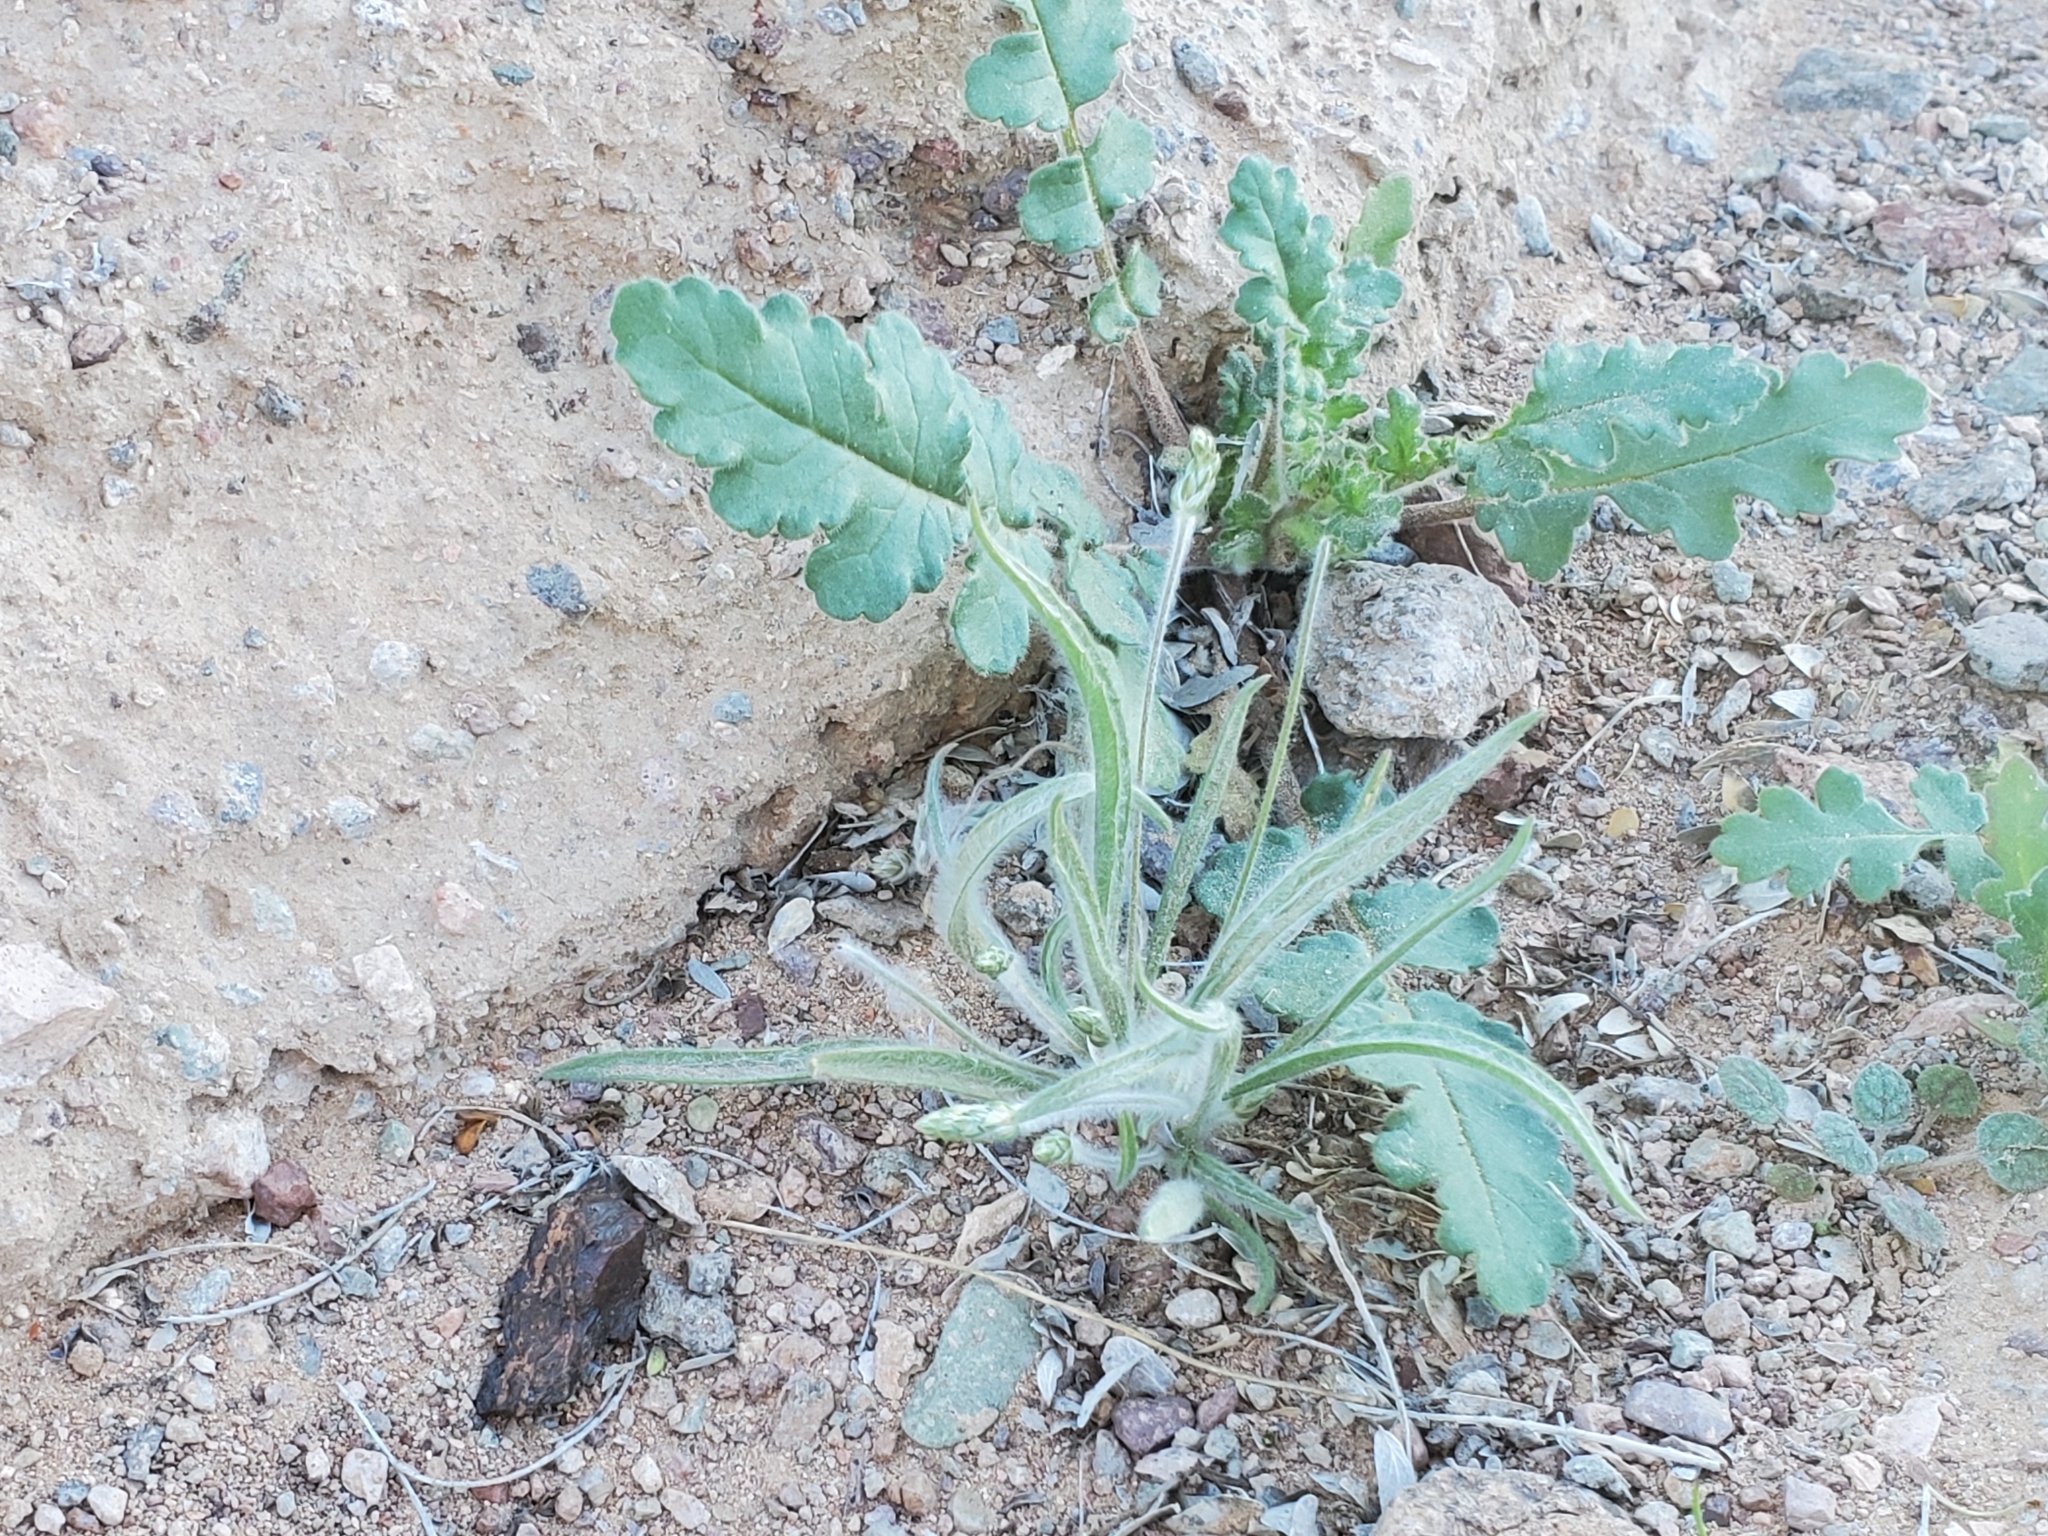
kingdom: Plantae
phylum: Tracheophyta
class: Magnoliopsida
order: Lamiales
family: Plantaginaceae
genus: Plantago
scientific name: Plantago ovata
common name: Blond plantain
